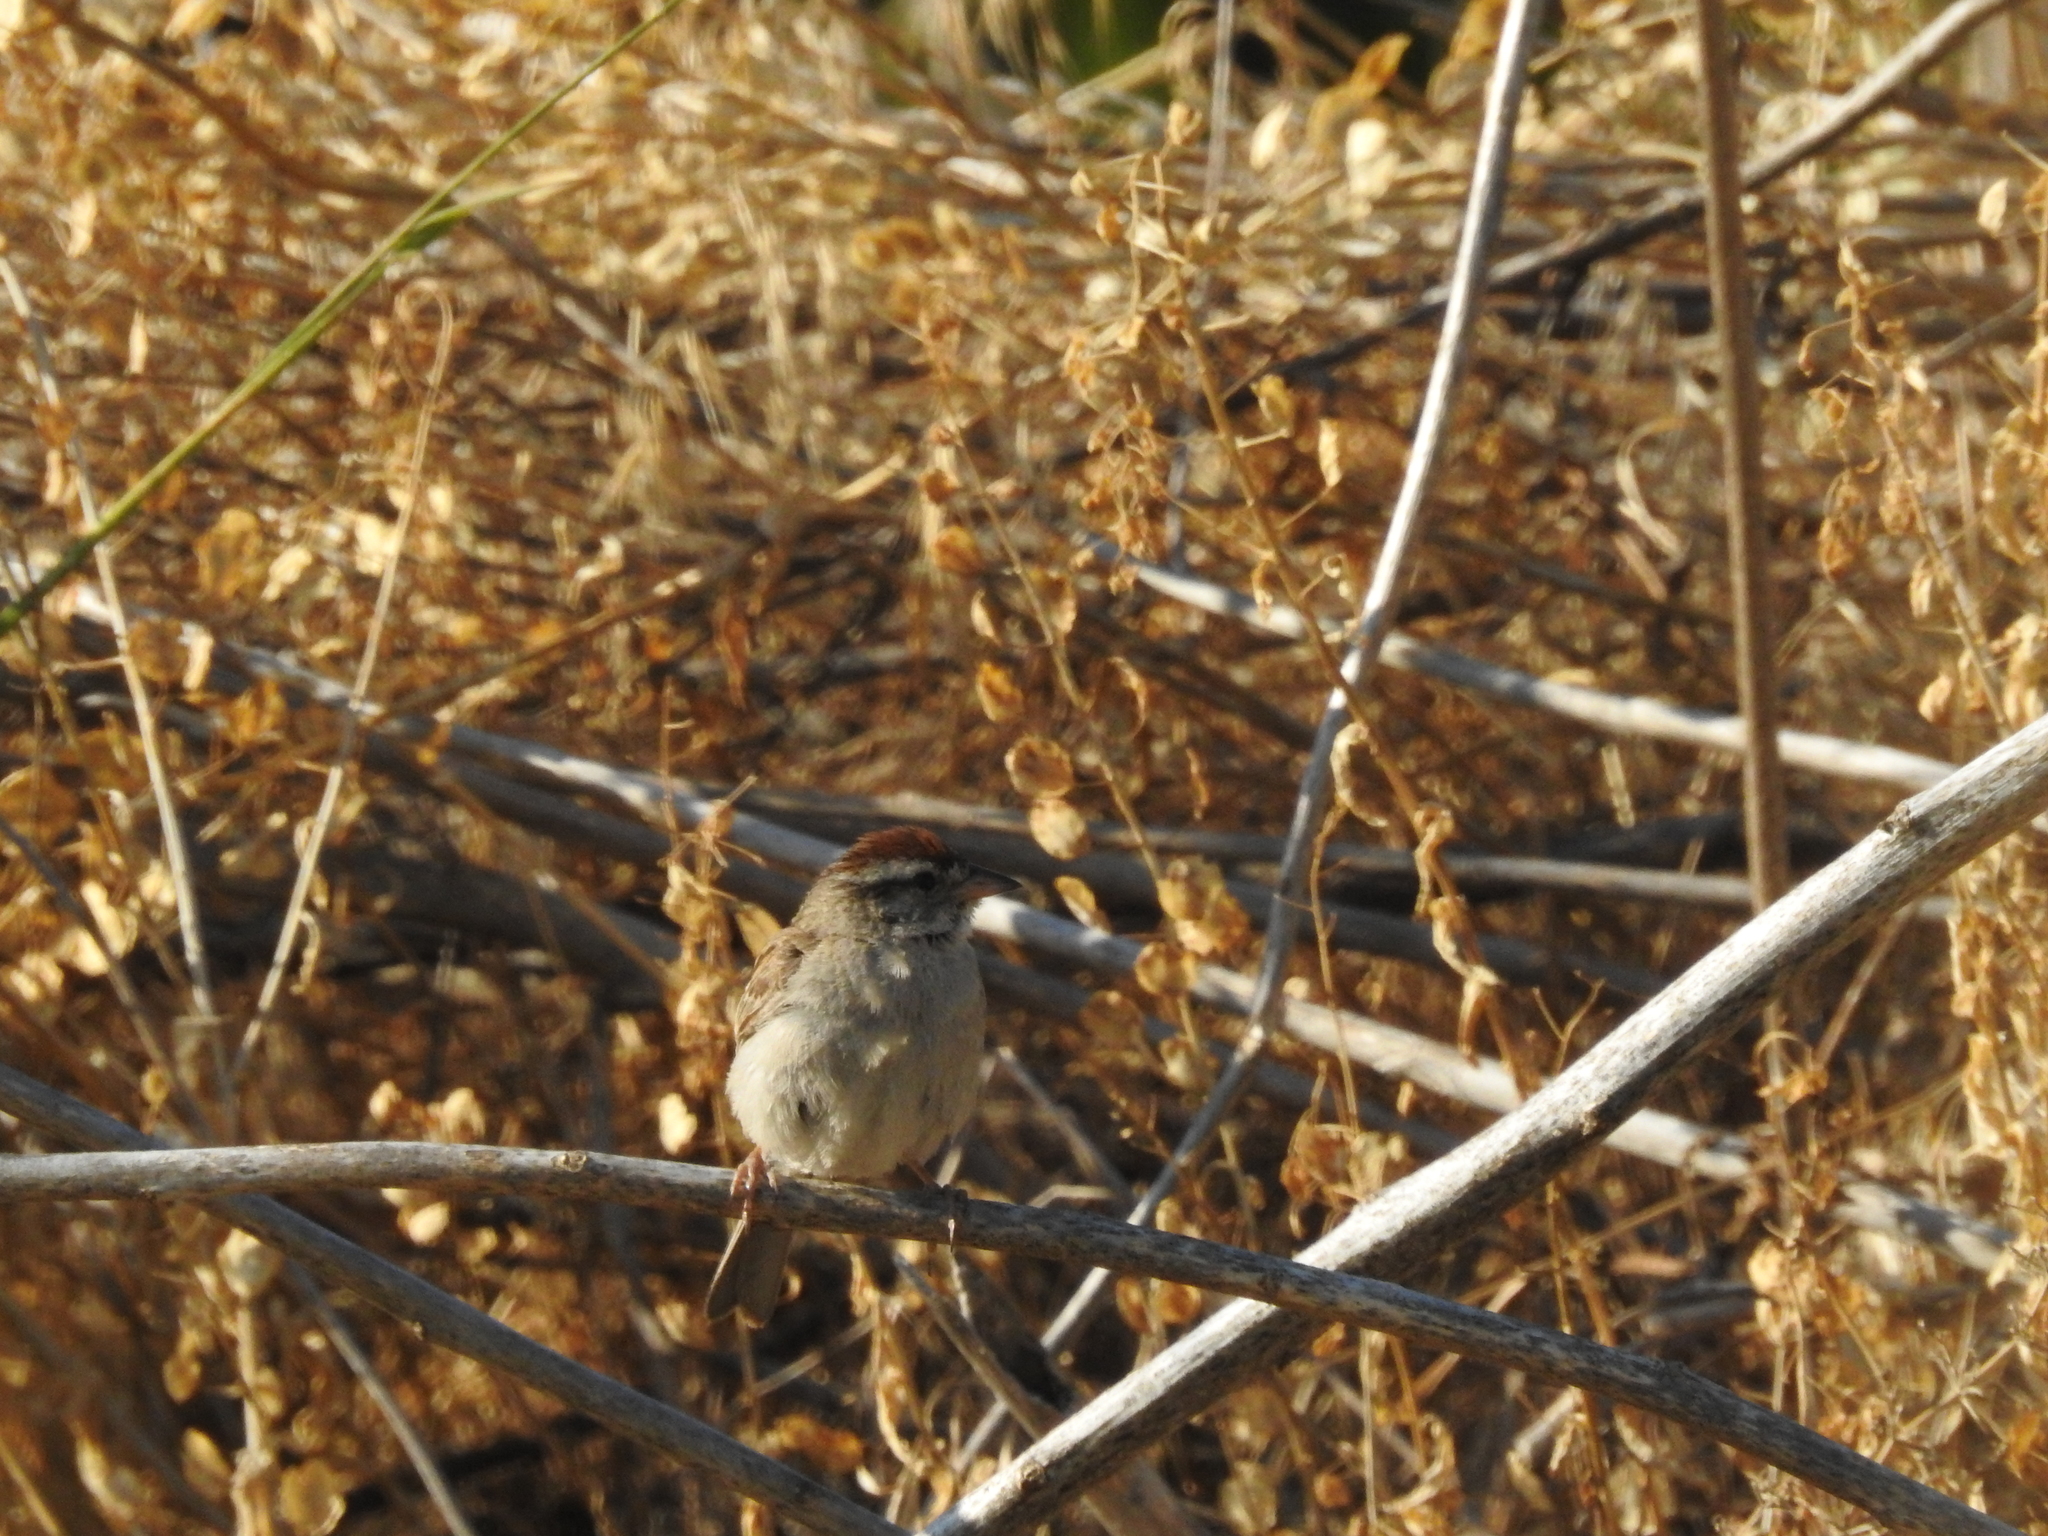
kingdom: Animalia
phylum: Chordata
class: Aves
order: Passeriformes
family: Passerellidae
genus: Spizella
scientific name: Spizella passerina
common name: Chipping sparrow
